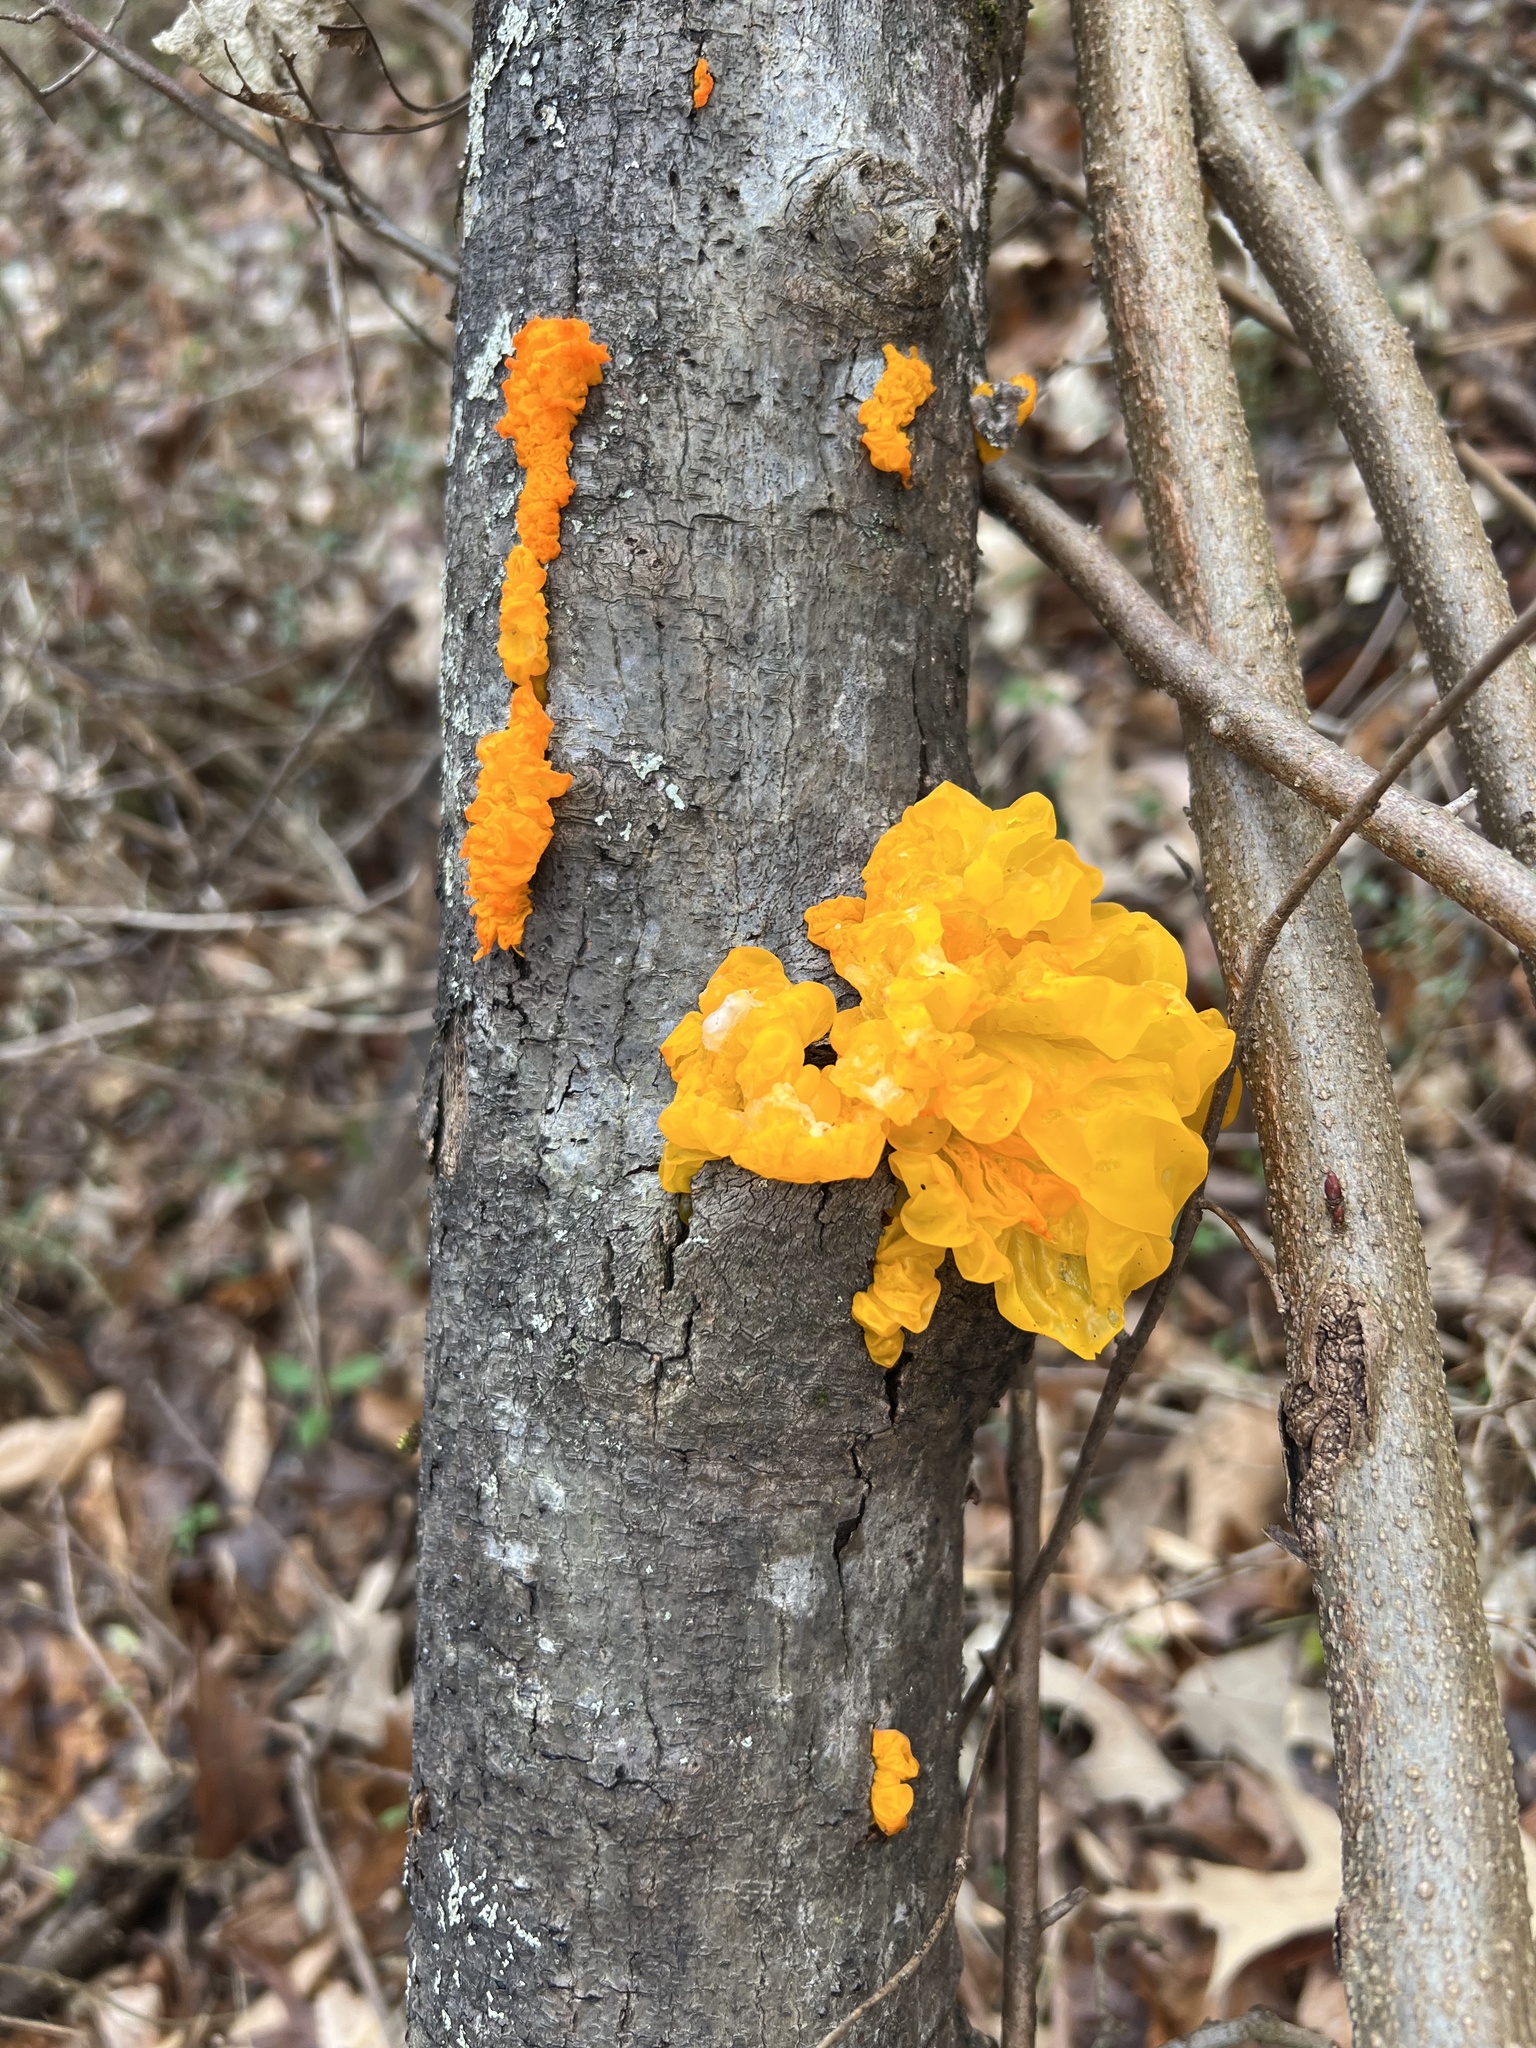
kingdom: Fungi
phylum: Basidiomycota
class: Tremellomycetes
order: Tremellales
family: Tremellaceae
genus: Tremella
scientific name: Tremella mesenterica
